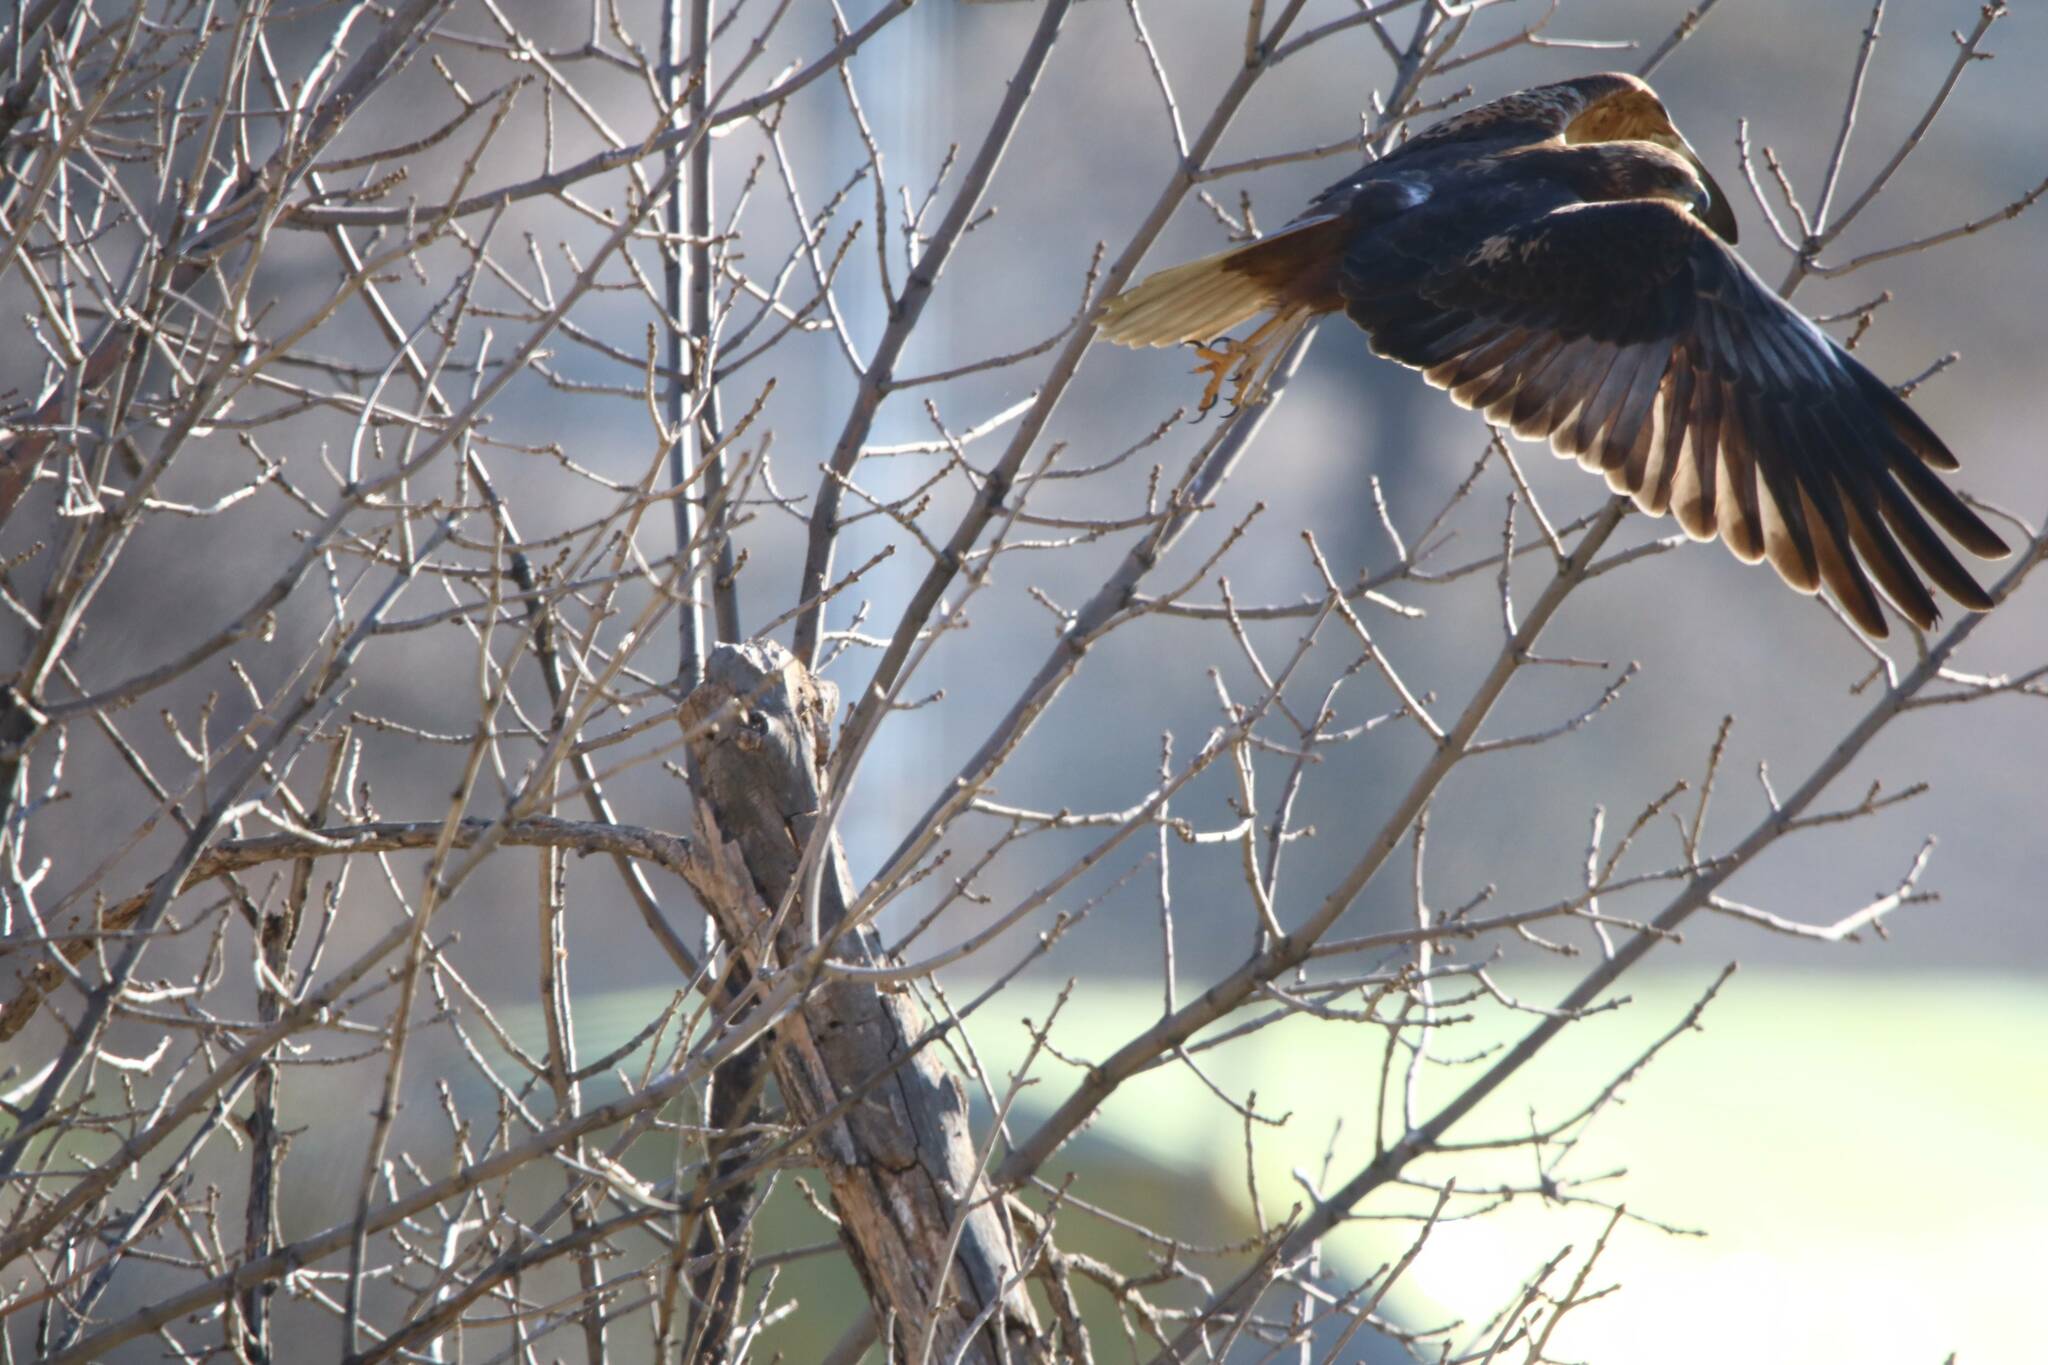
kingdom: Animalia
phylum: Chordata
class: Aves
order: Accipitriformes
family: Accipitridae
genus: Buteo
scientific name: Buteo rufinus
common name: Long-legged buzzard
